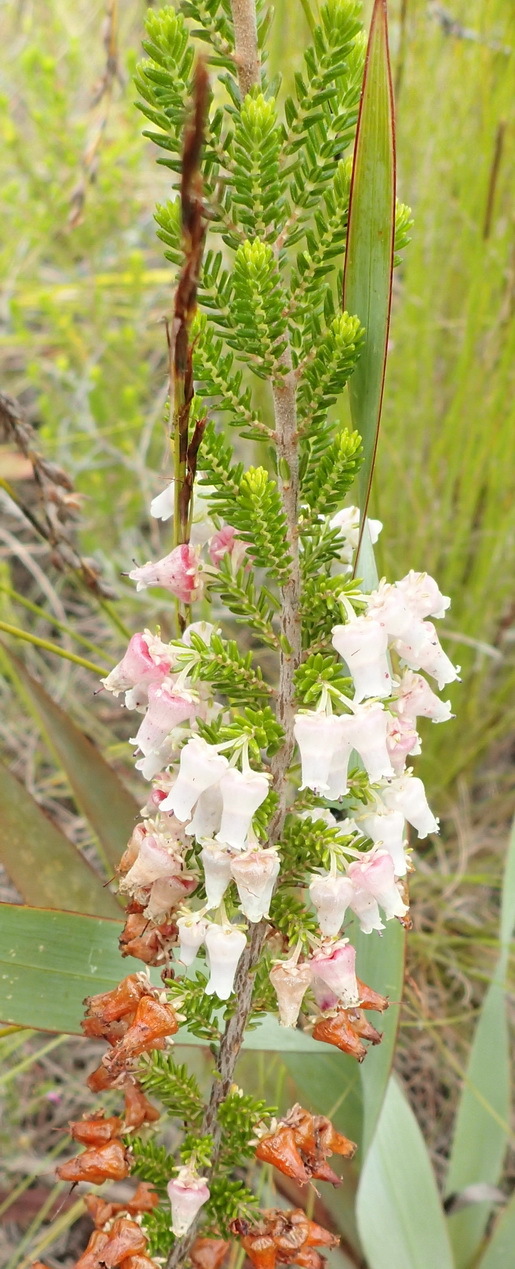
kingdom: Plantae
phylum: Tracheophyta
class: Magnoliopsida
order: Ericales
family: Ericaceae
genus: Erica
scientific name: Erica glomiflora
